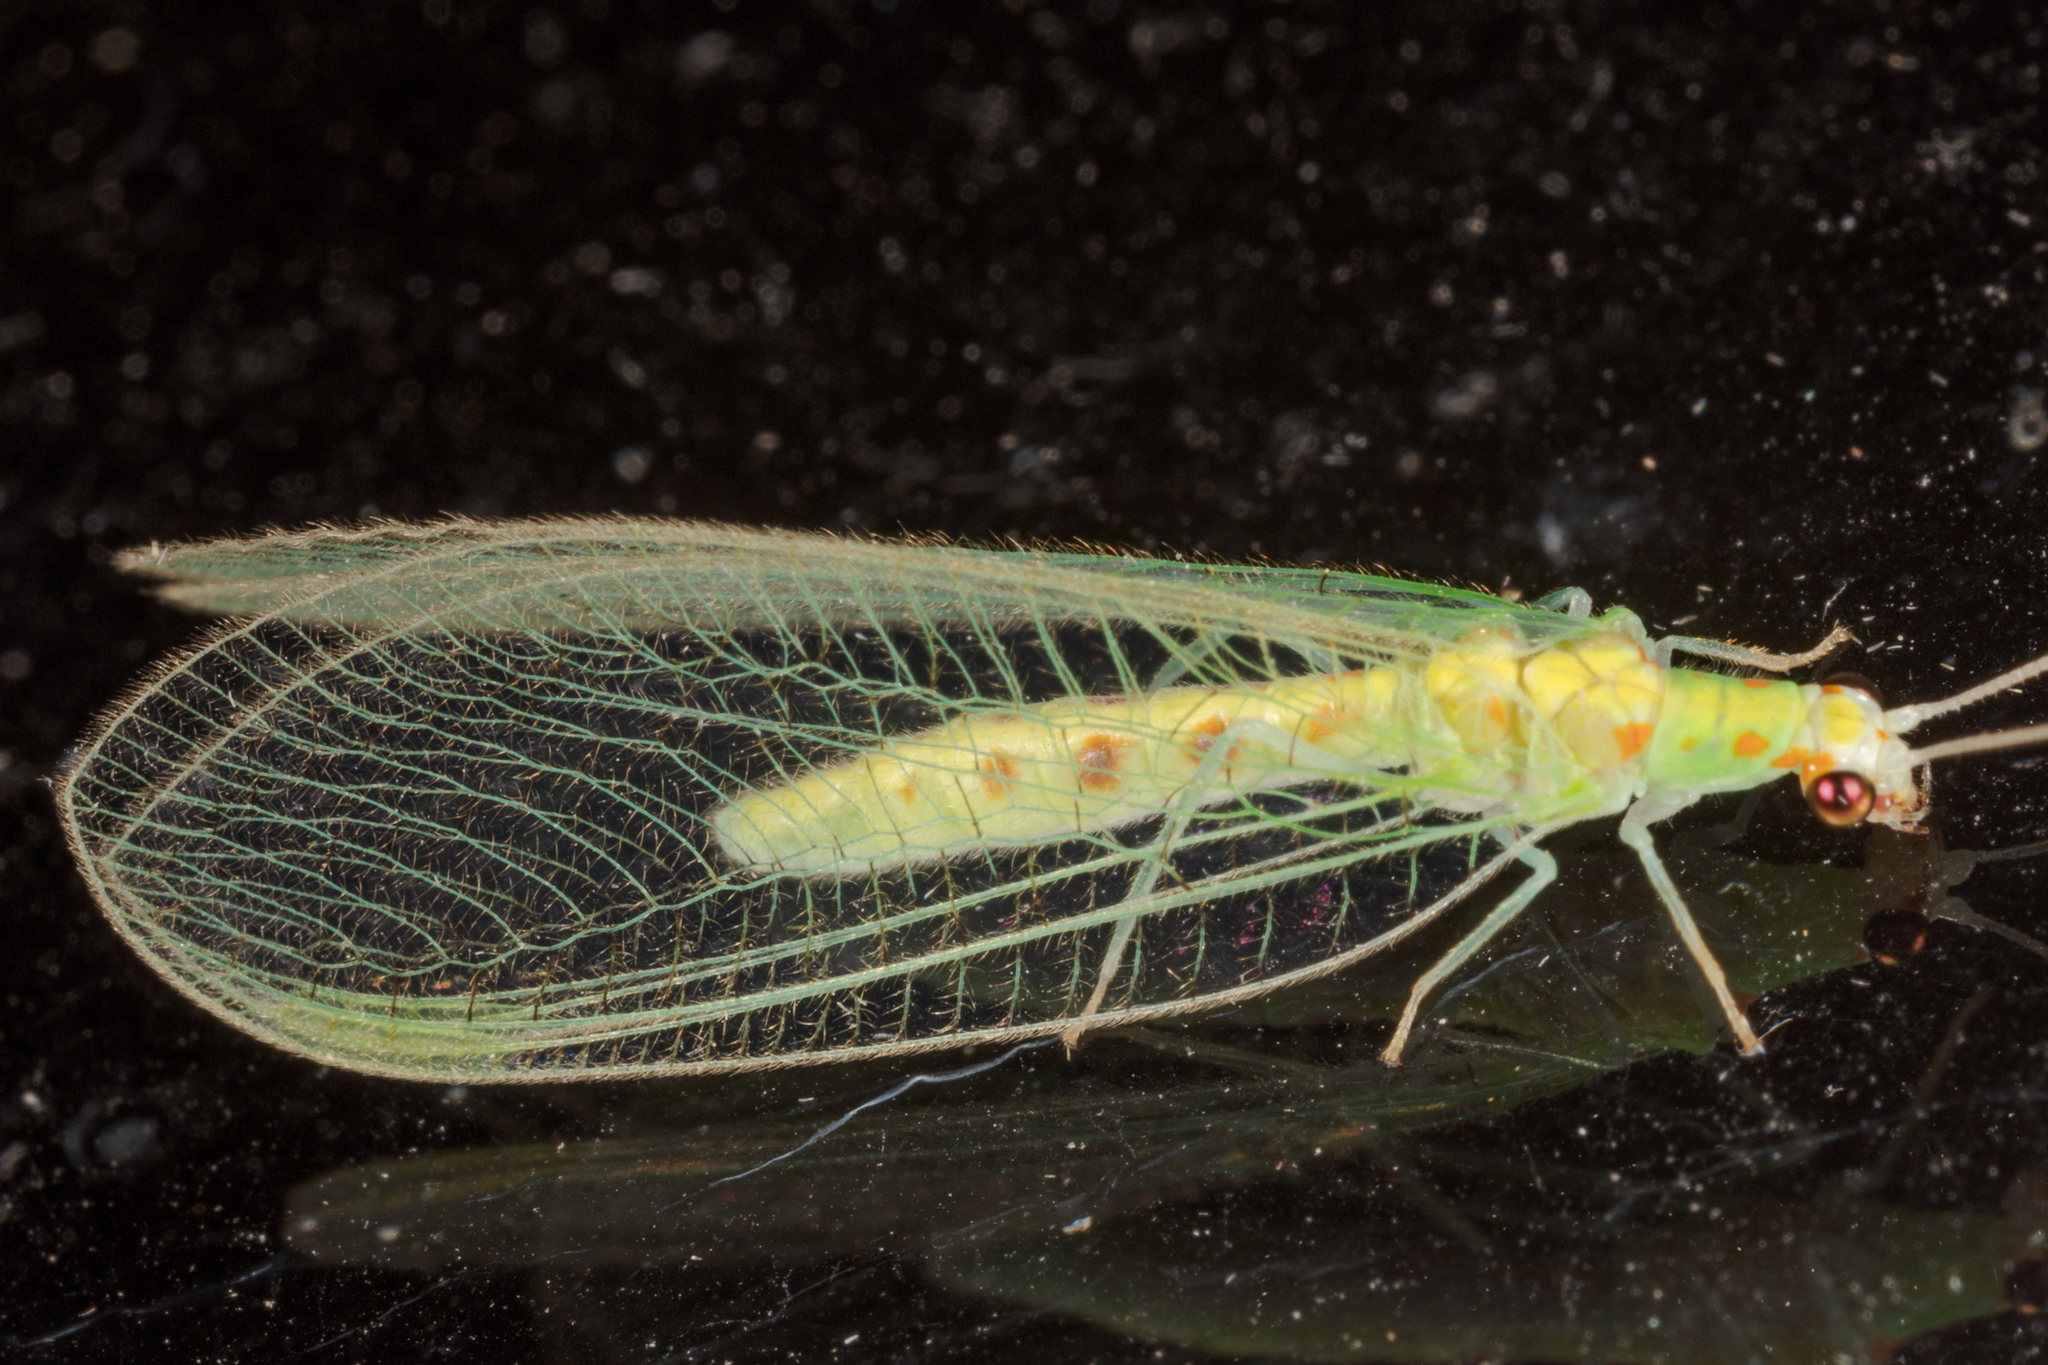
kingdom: Animalia
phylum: Arthropoda
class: Insecta
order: Neuroptera
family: Chrysopidae
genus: Chrysopa
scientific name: Chrysopa quadripunctata
